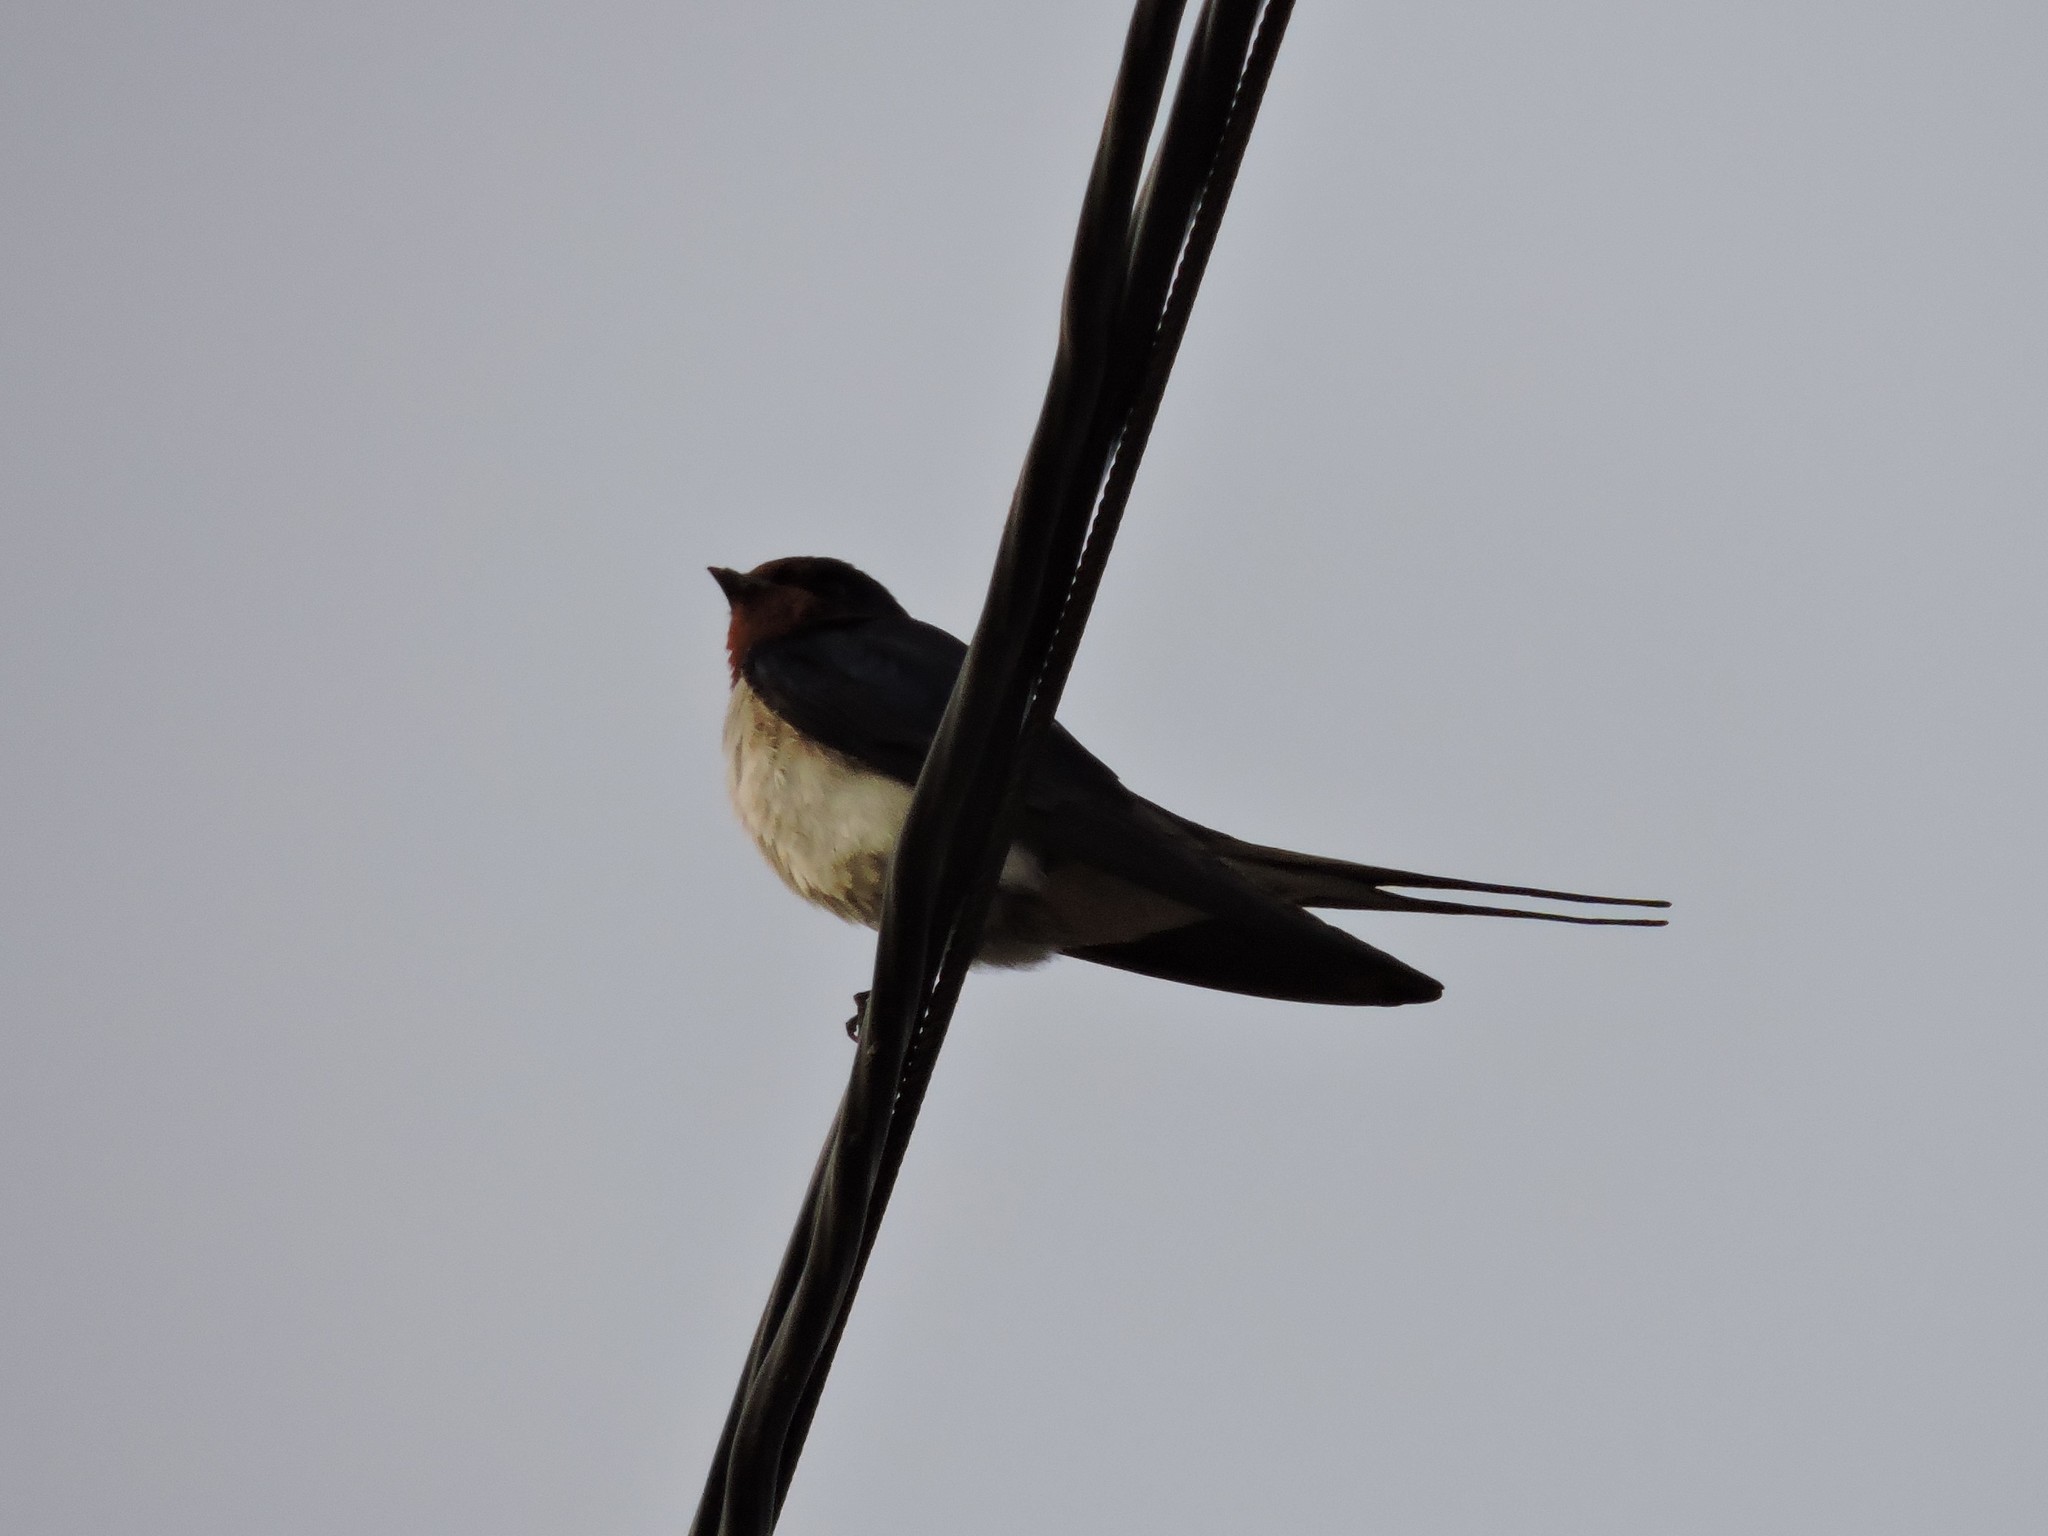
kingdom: Animalia
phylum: Chordata
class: Aves
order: Passeriformes
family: Hirundinidae
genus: Hirundo
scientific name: Hirundo rustica
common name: Barn swallow
